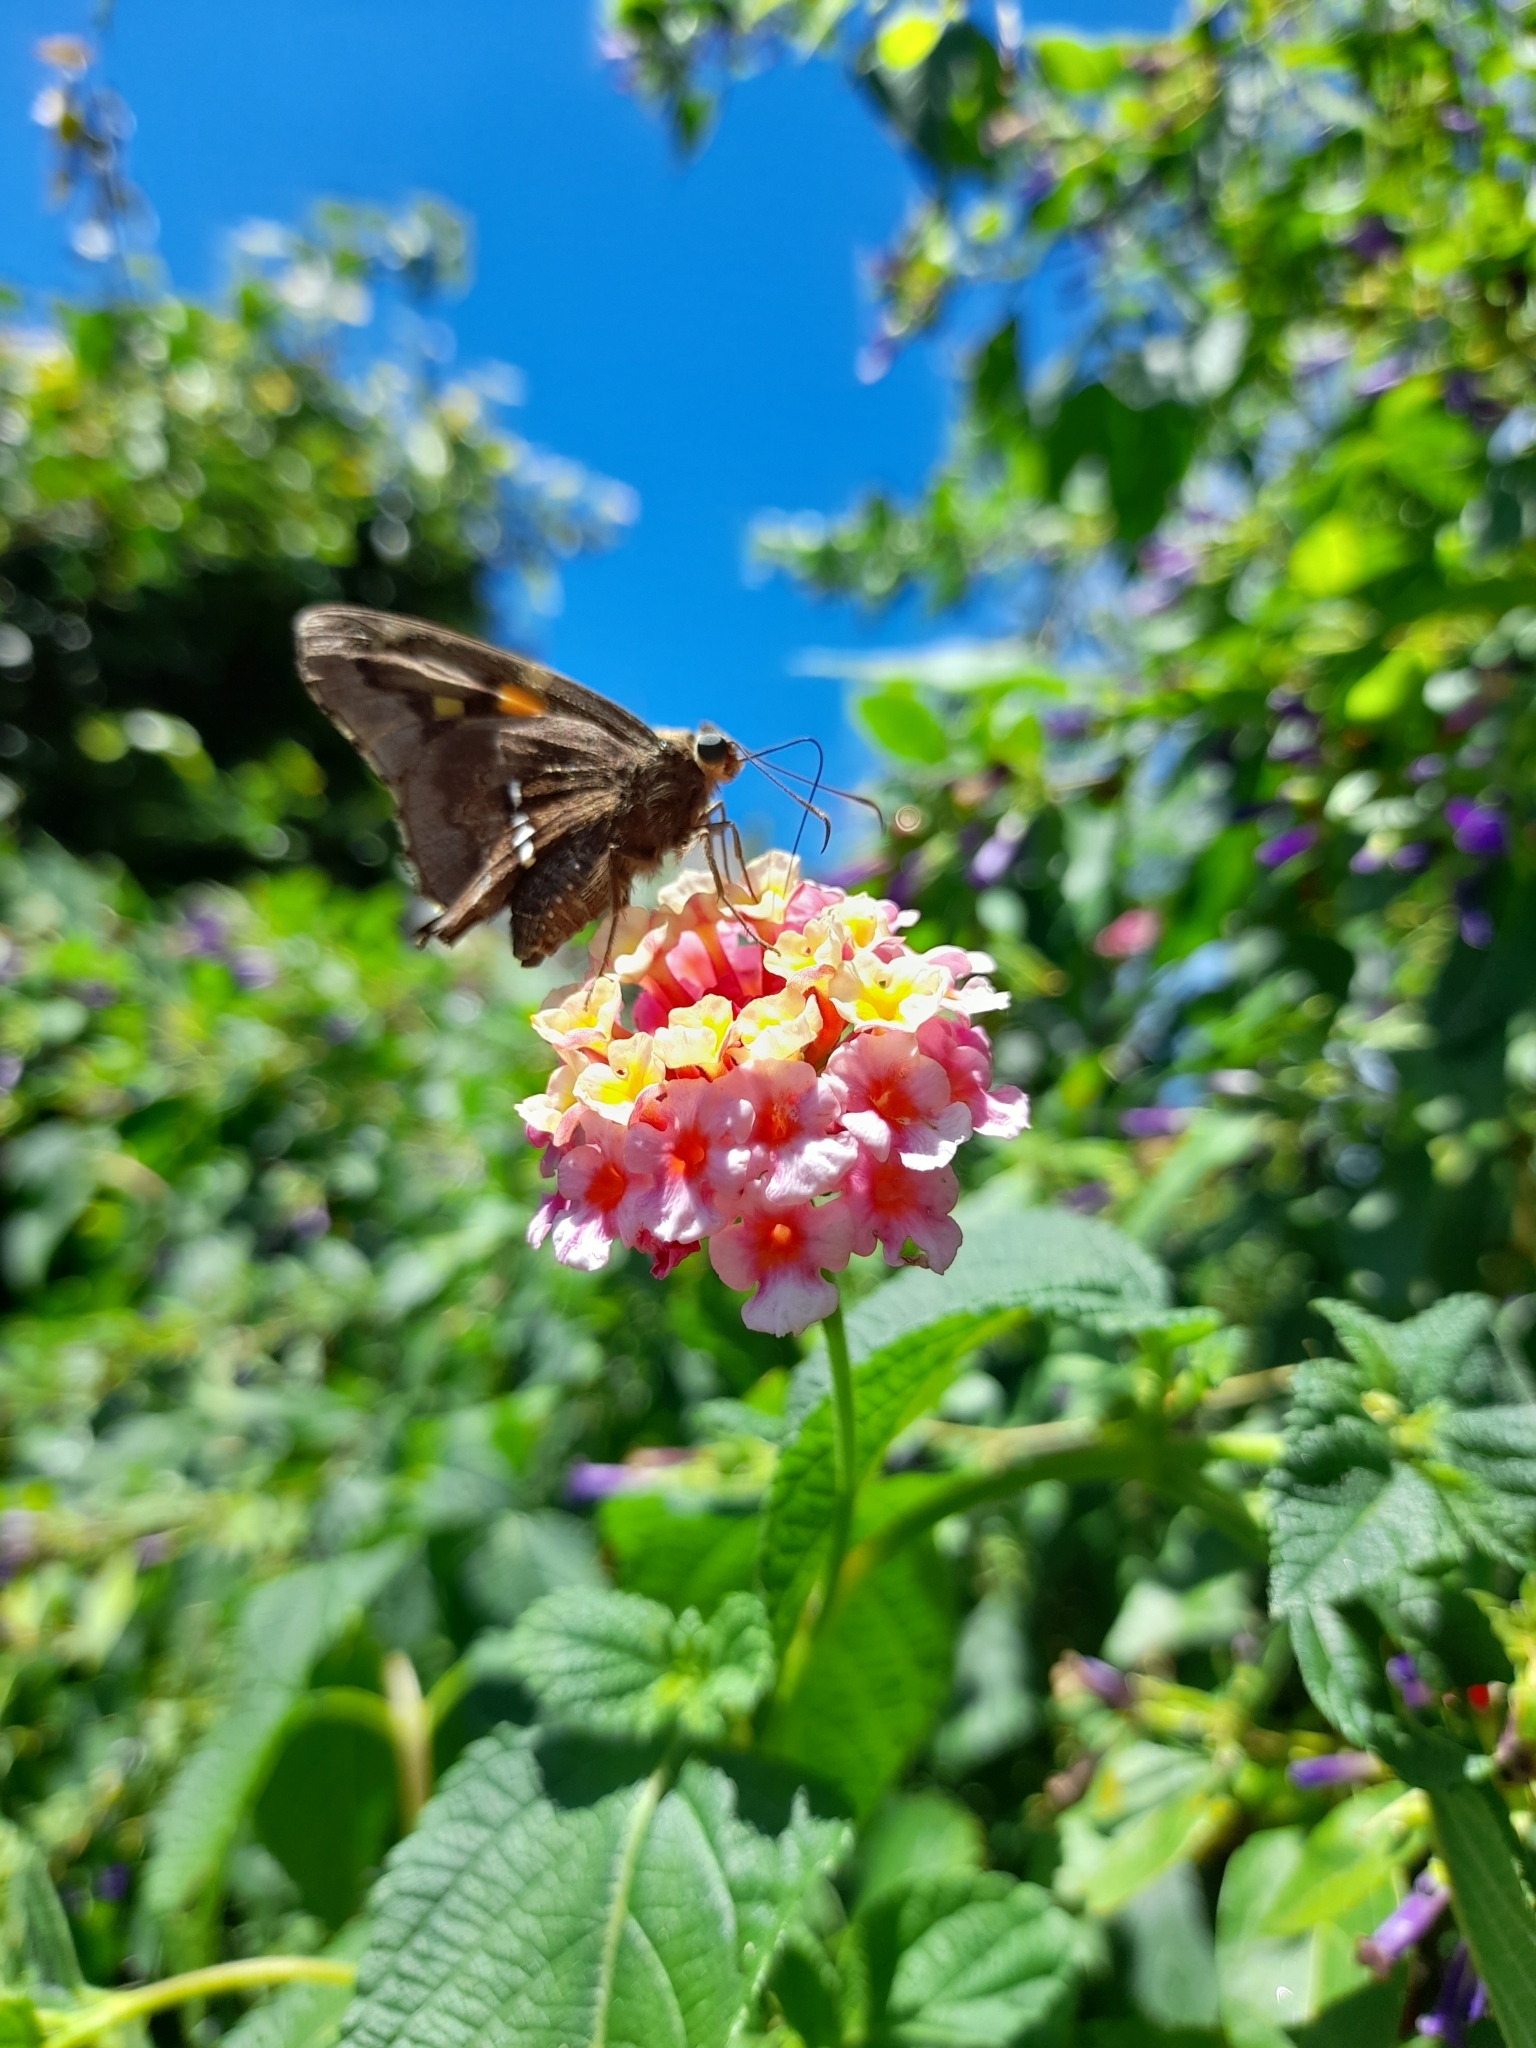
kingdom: Animalia
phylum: Arthropoda
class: Insecta
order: Lepidoptera
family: Hesperiidae
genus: Epargyreus
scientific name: Epargyreus tmolis
